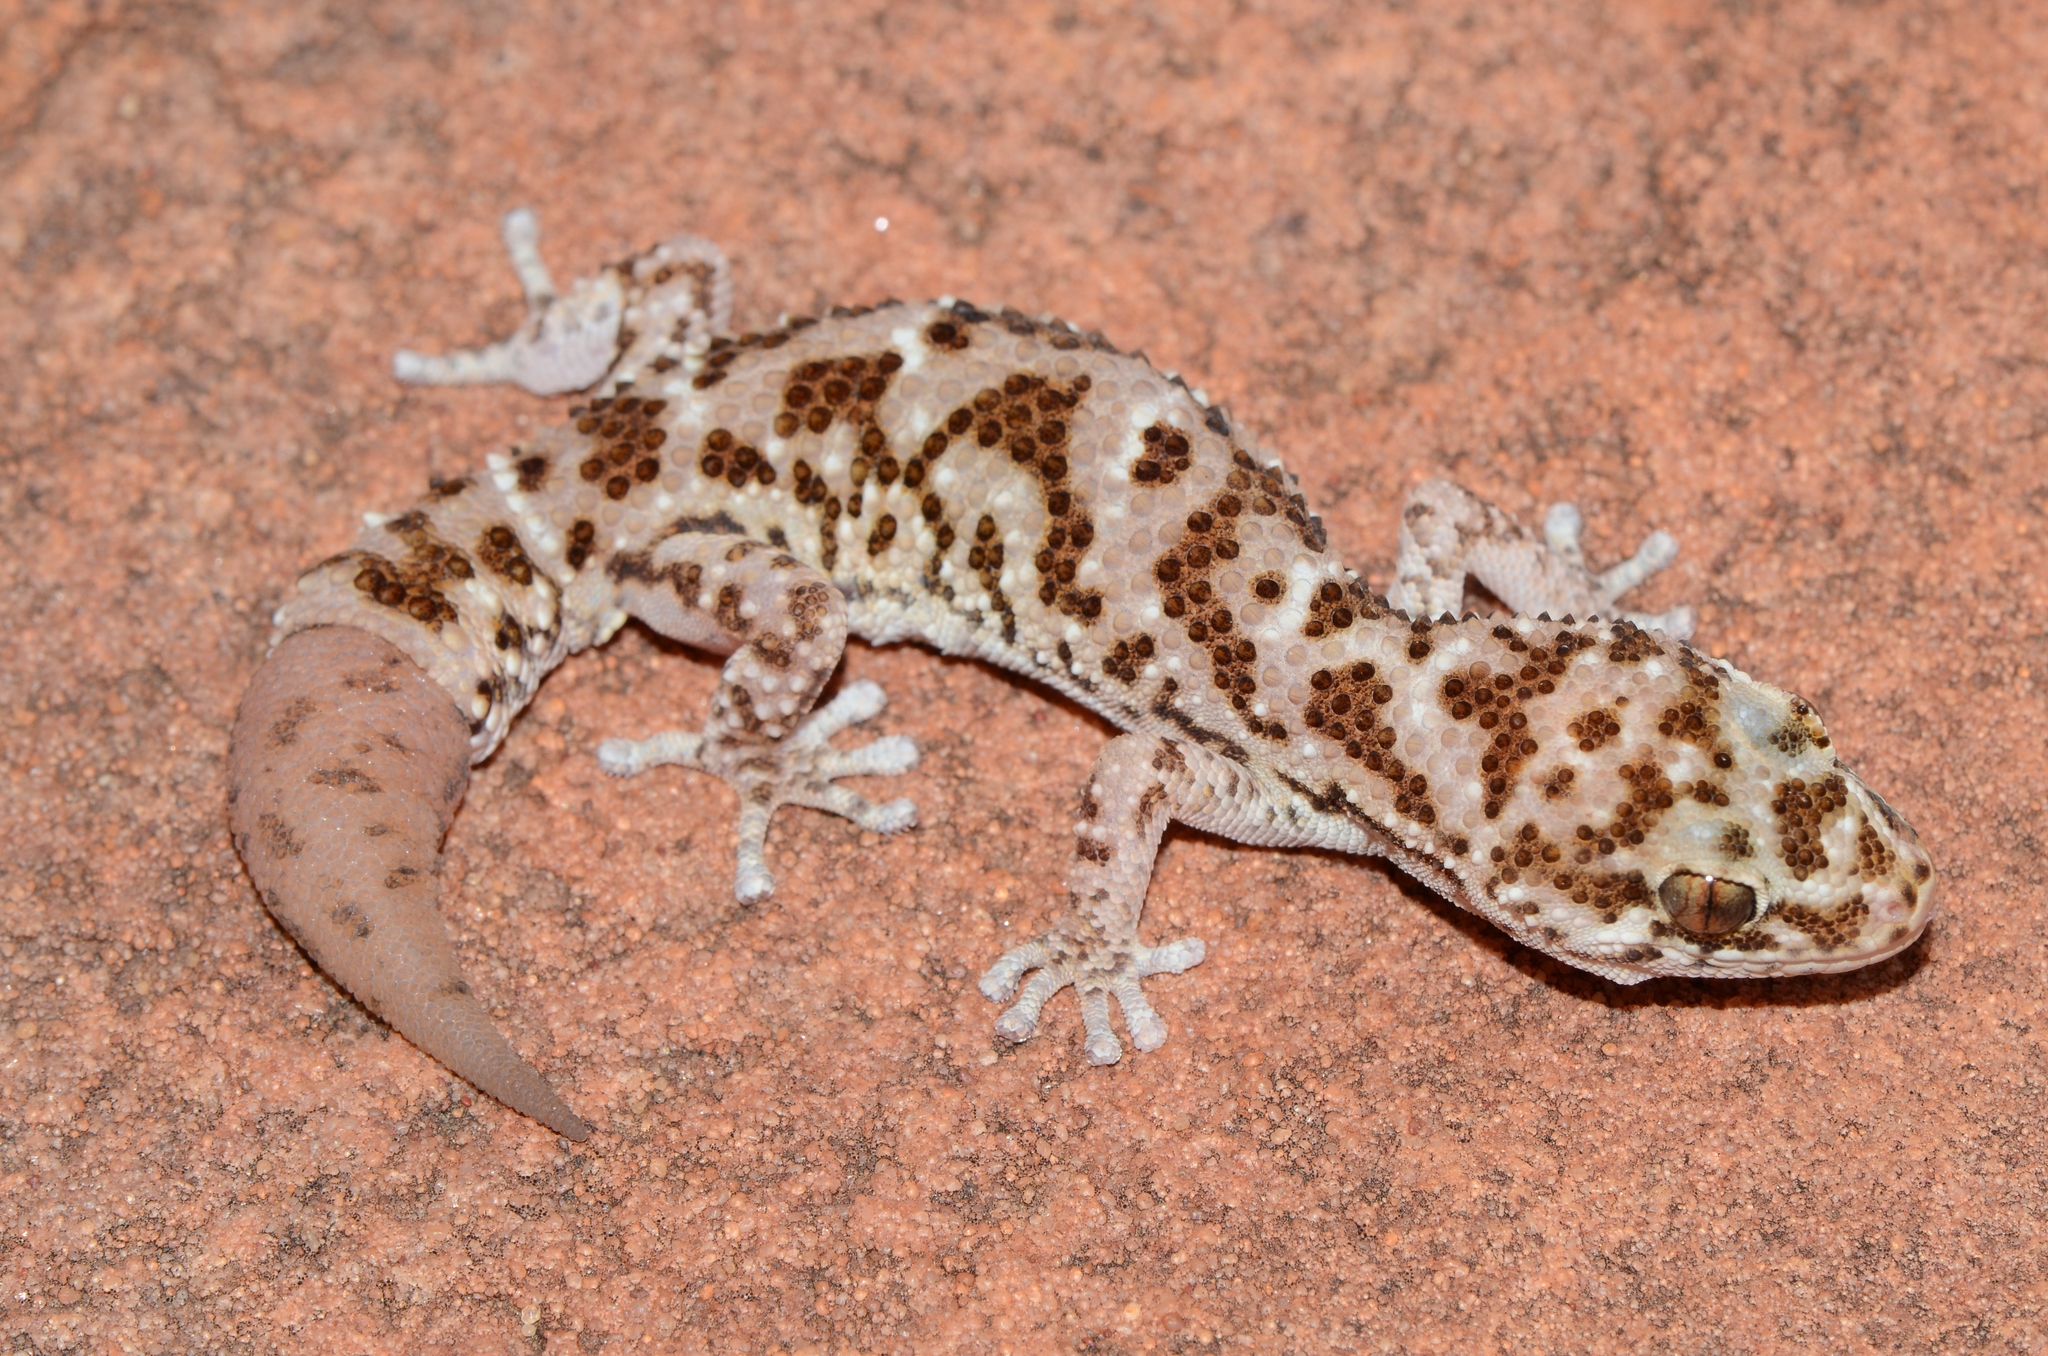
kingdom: Animalia
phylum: Chordata
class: Squamata
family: Gekkonidae
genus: Pachydactylus
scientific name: Pachydactylus capensis
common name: Cape gecko
